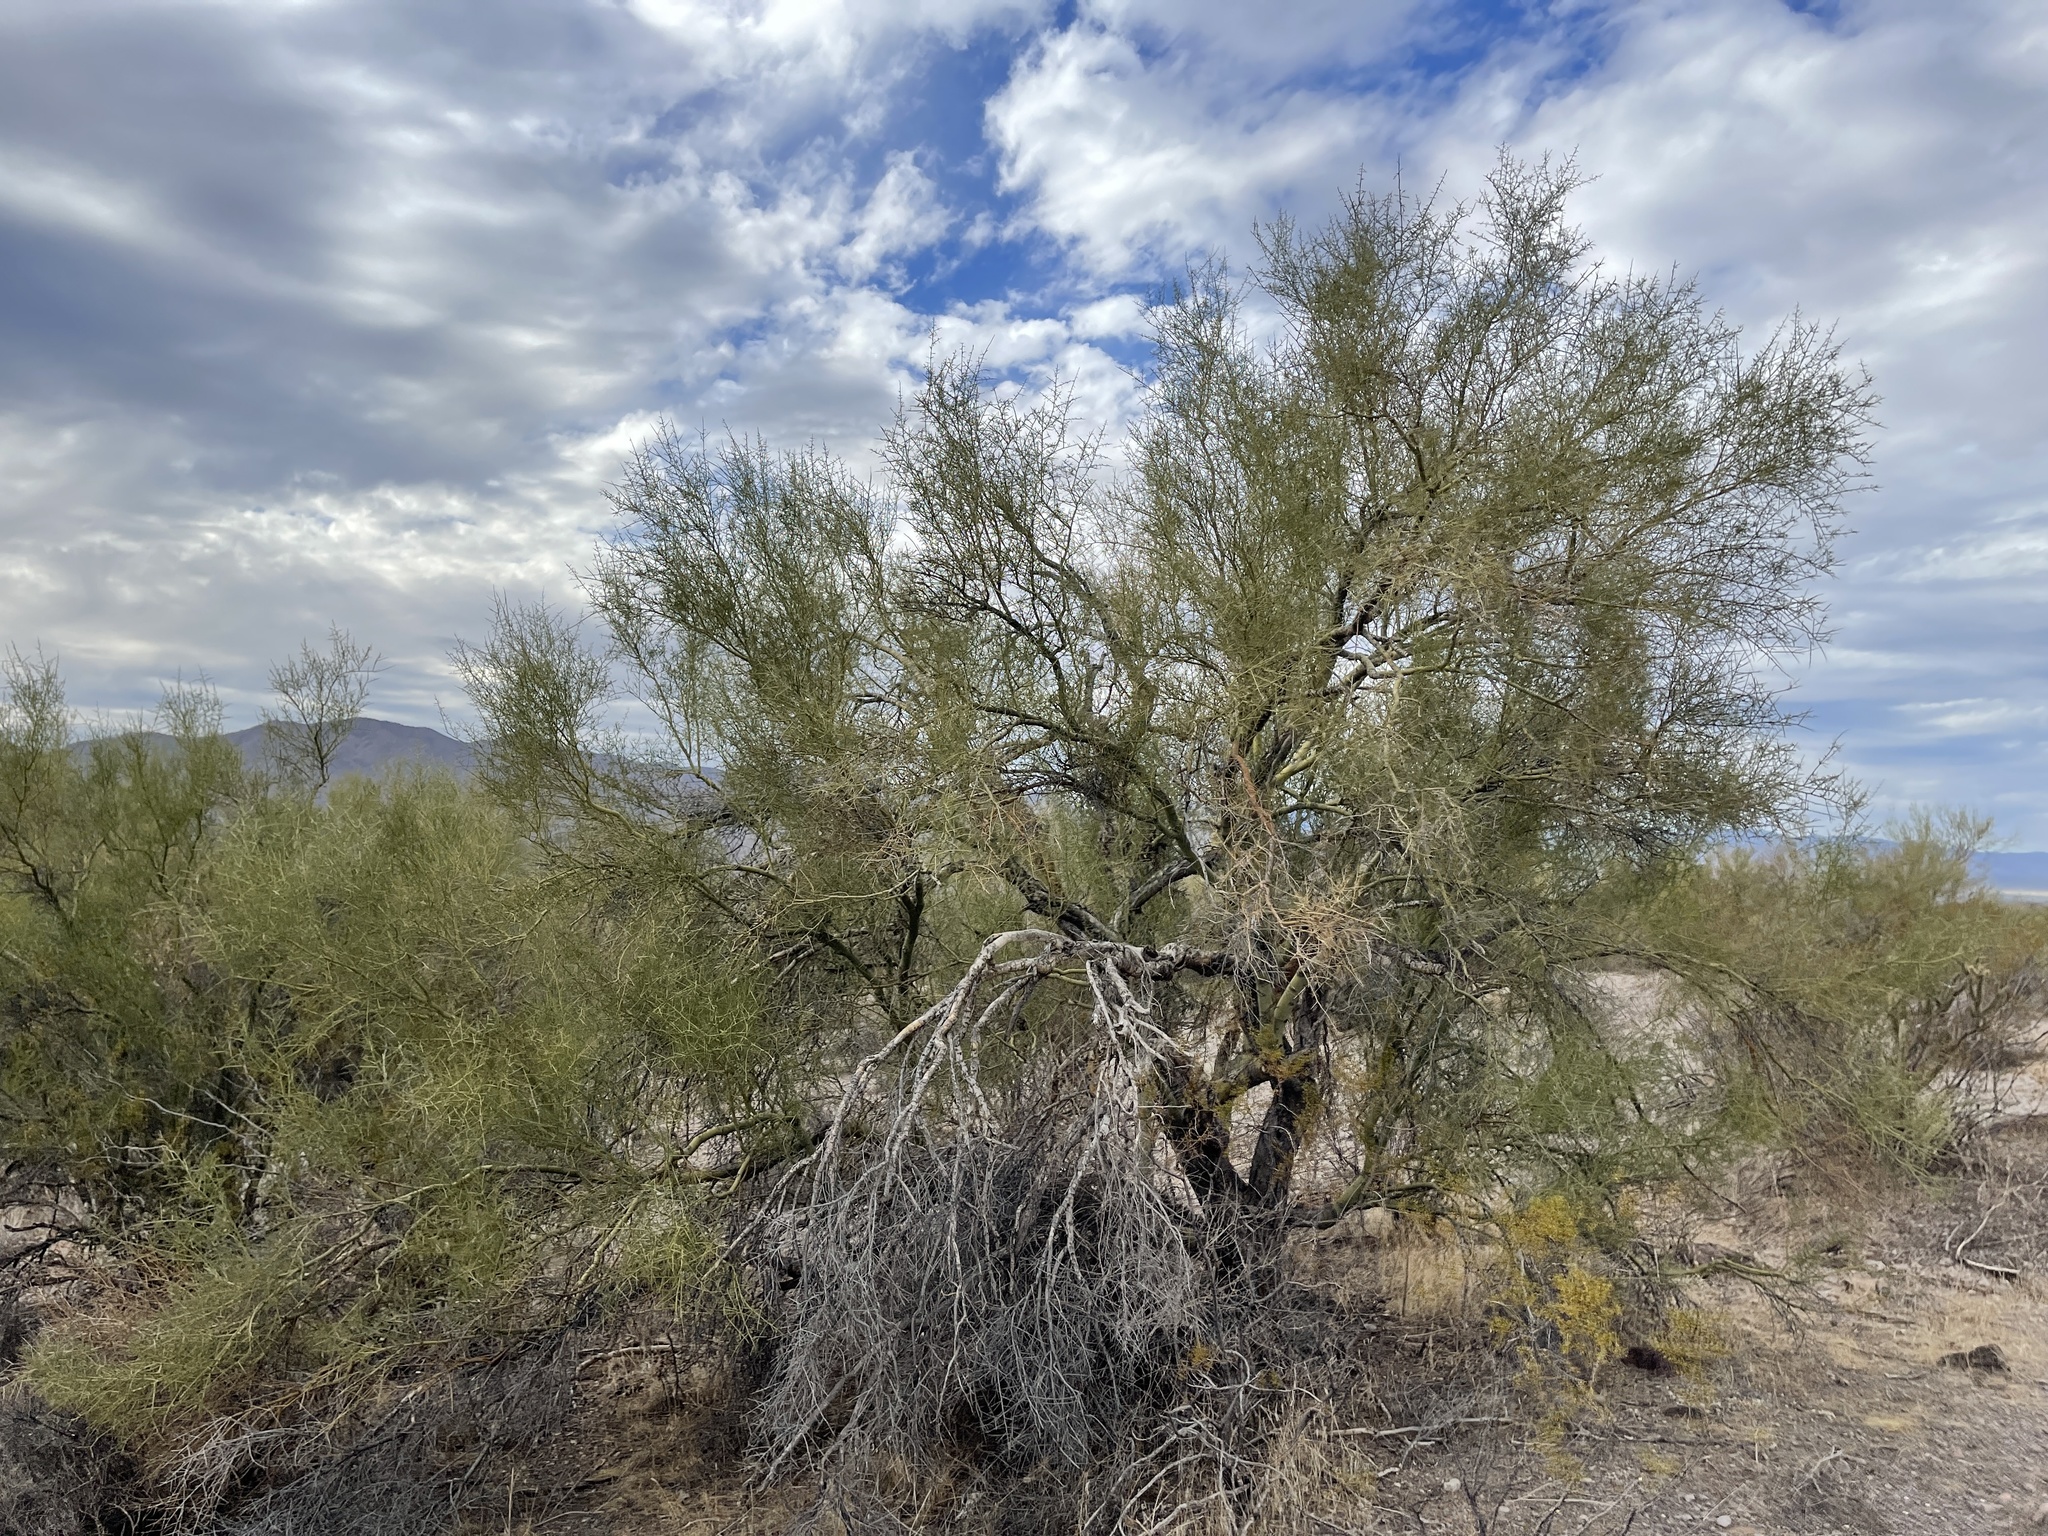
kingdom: Plantae
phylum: Tracheophyta
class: Magnoliopsida
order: Fabales
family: Fabaceae
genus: Parkinsonia
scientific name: Parkinsonia microphylla
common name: Yellow paloverde
